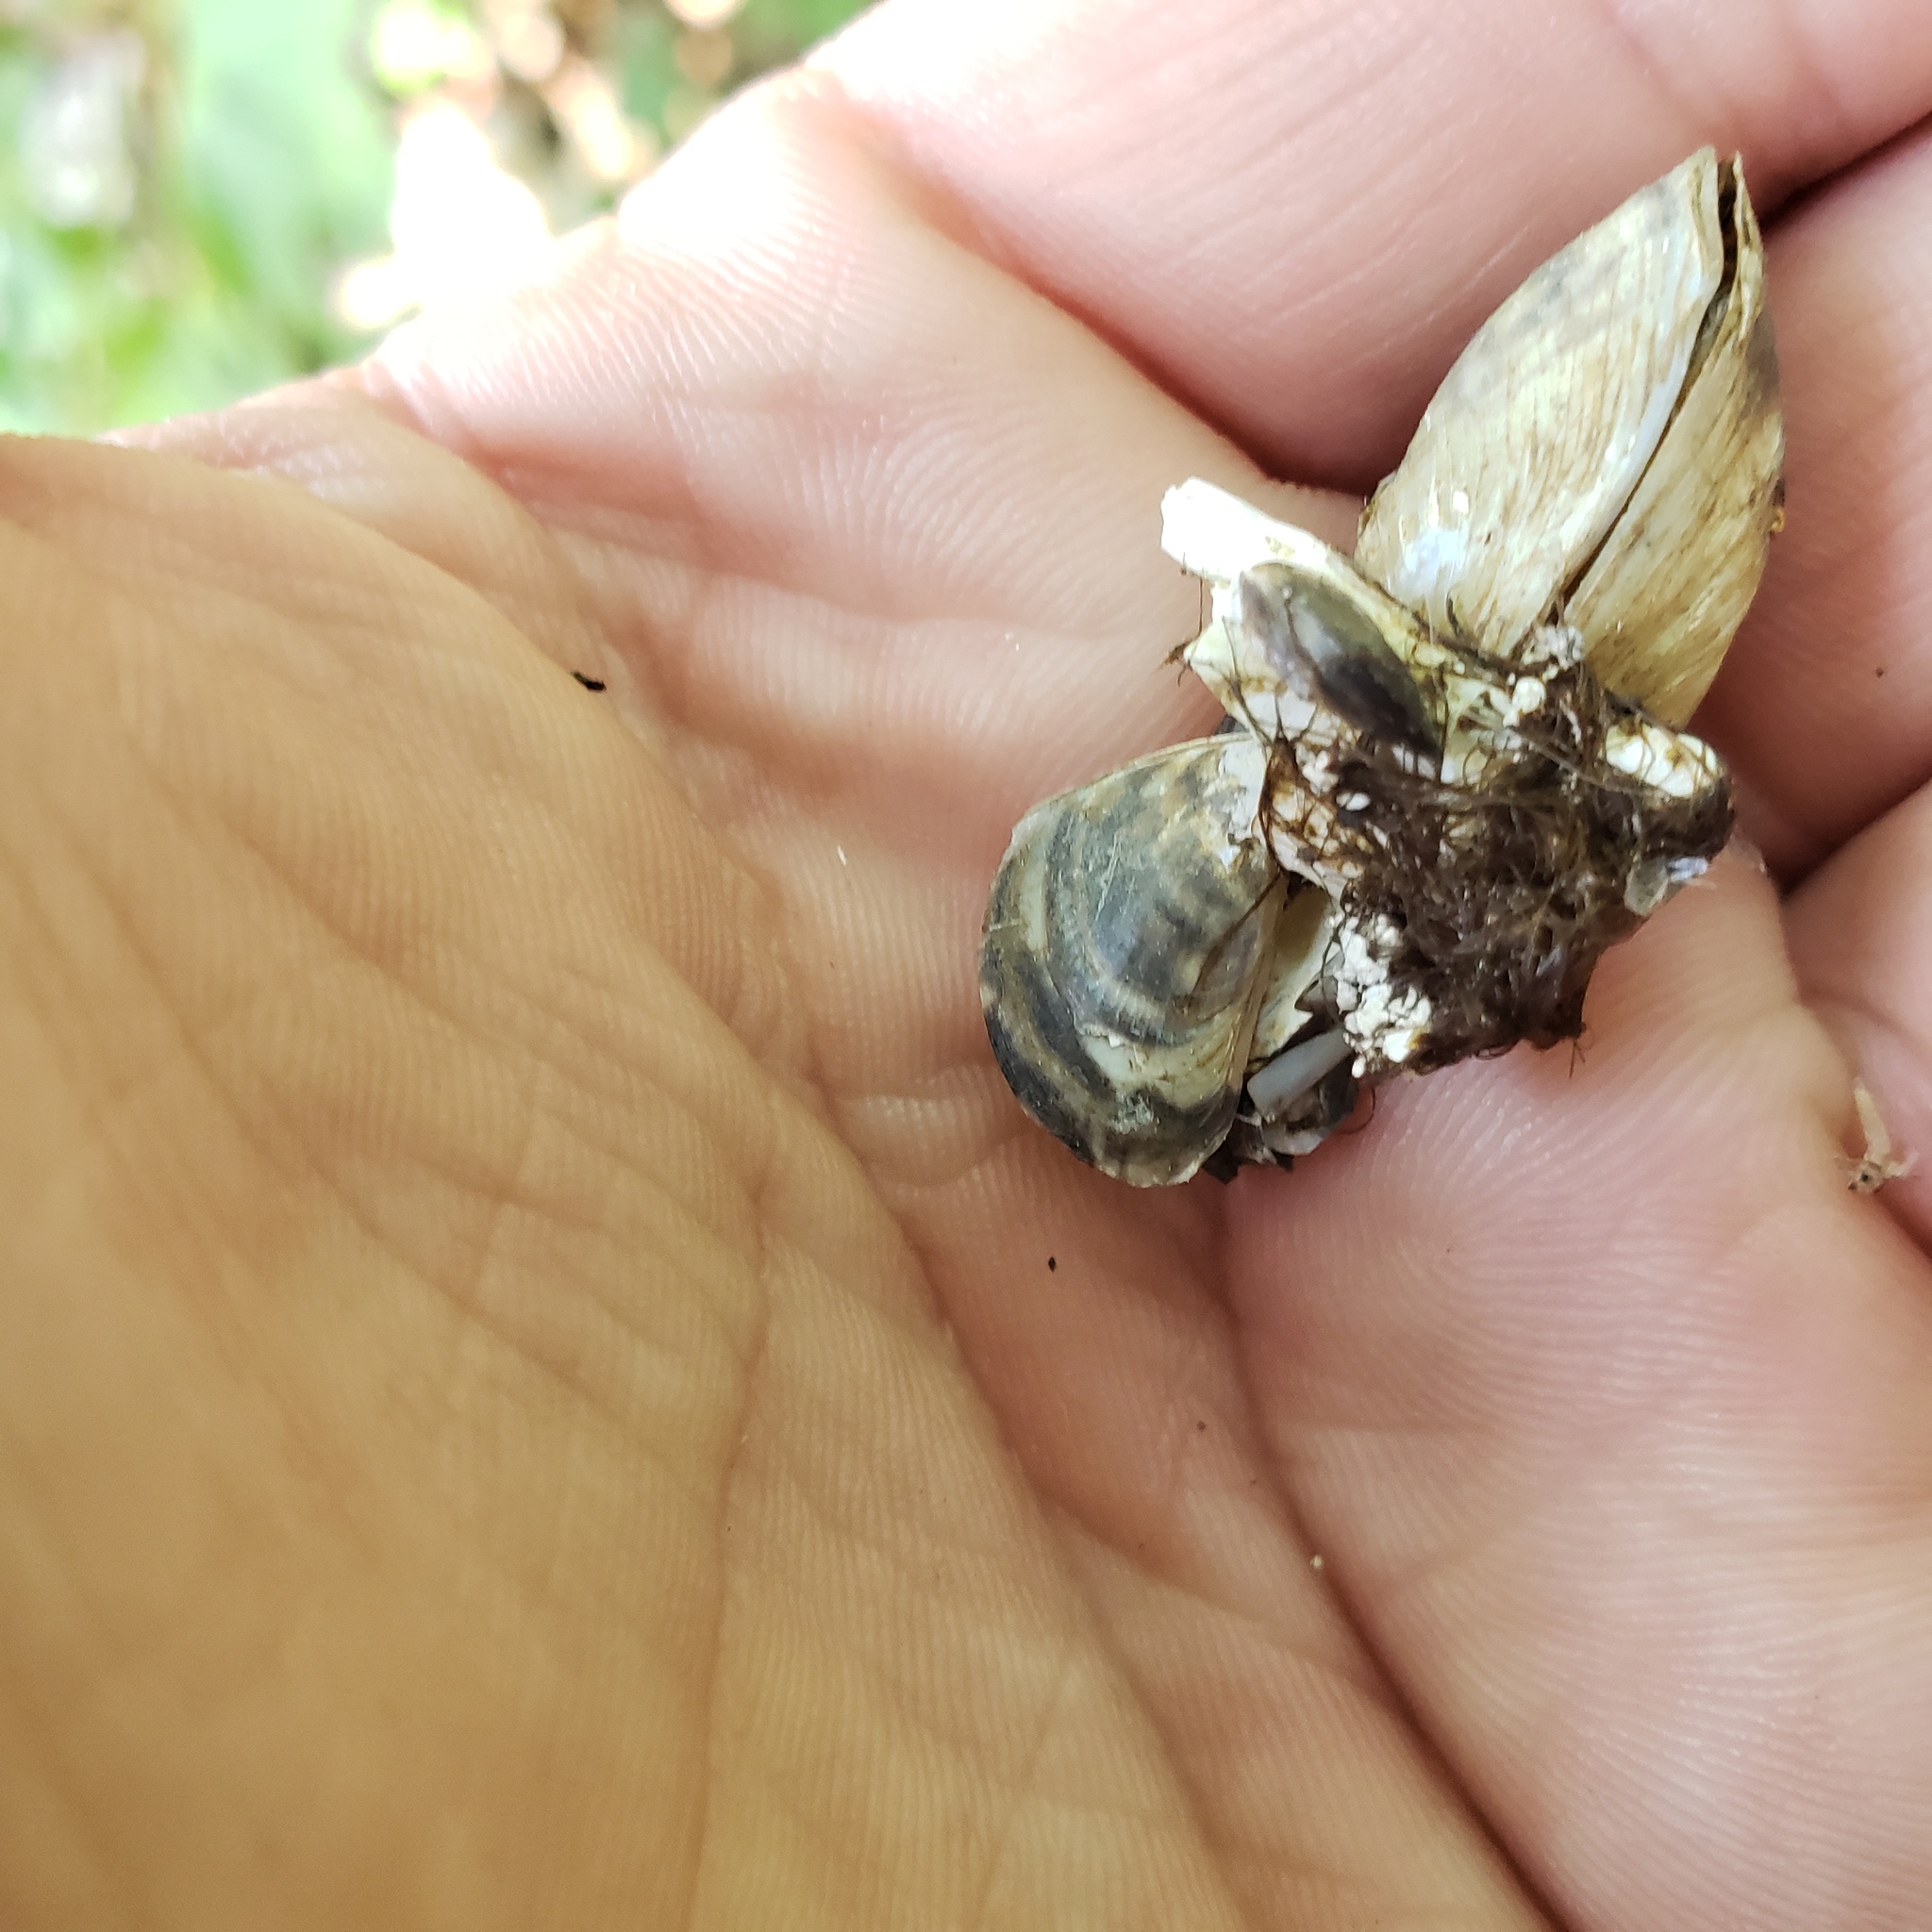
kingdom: Animalia
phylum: Mollusca
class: Bivalvia
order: Myida
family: Dreissenidae
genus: Dreissena
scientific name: Dreissena bugensis
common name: Quagga mussel
